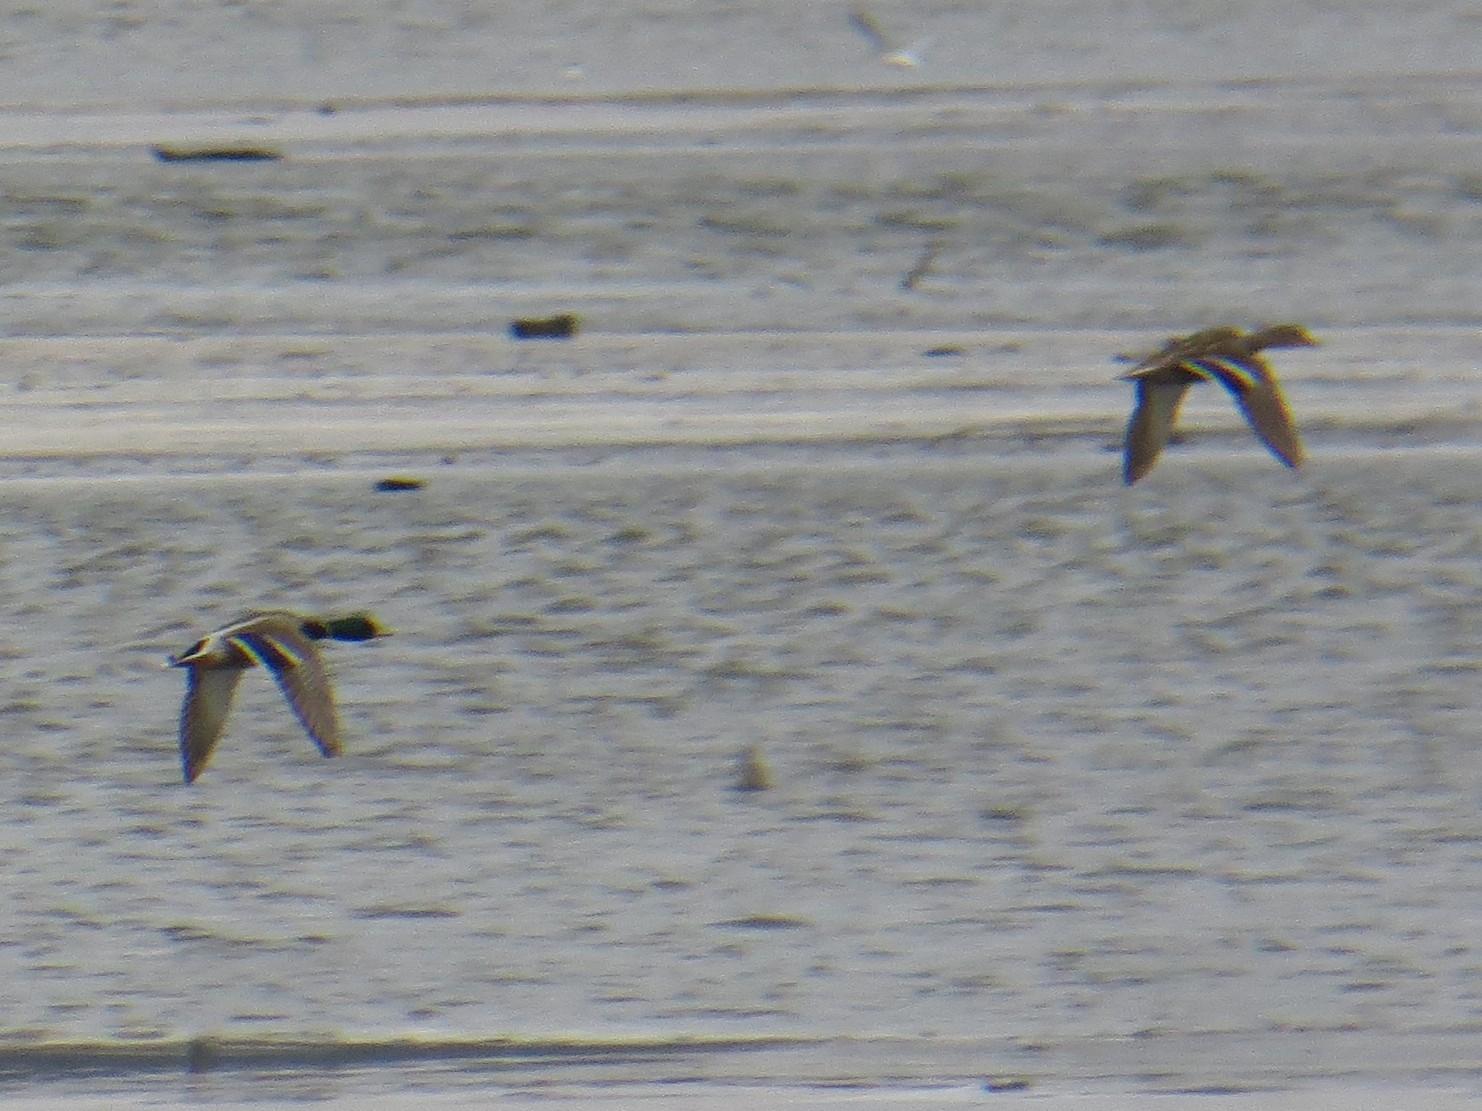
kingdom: Animalia
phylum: Chordata
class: Aves
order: Anseriformes
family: Anatidae
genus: Anas
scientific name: Anas platyrhynchos
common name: Mallard
